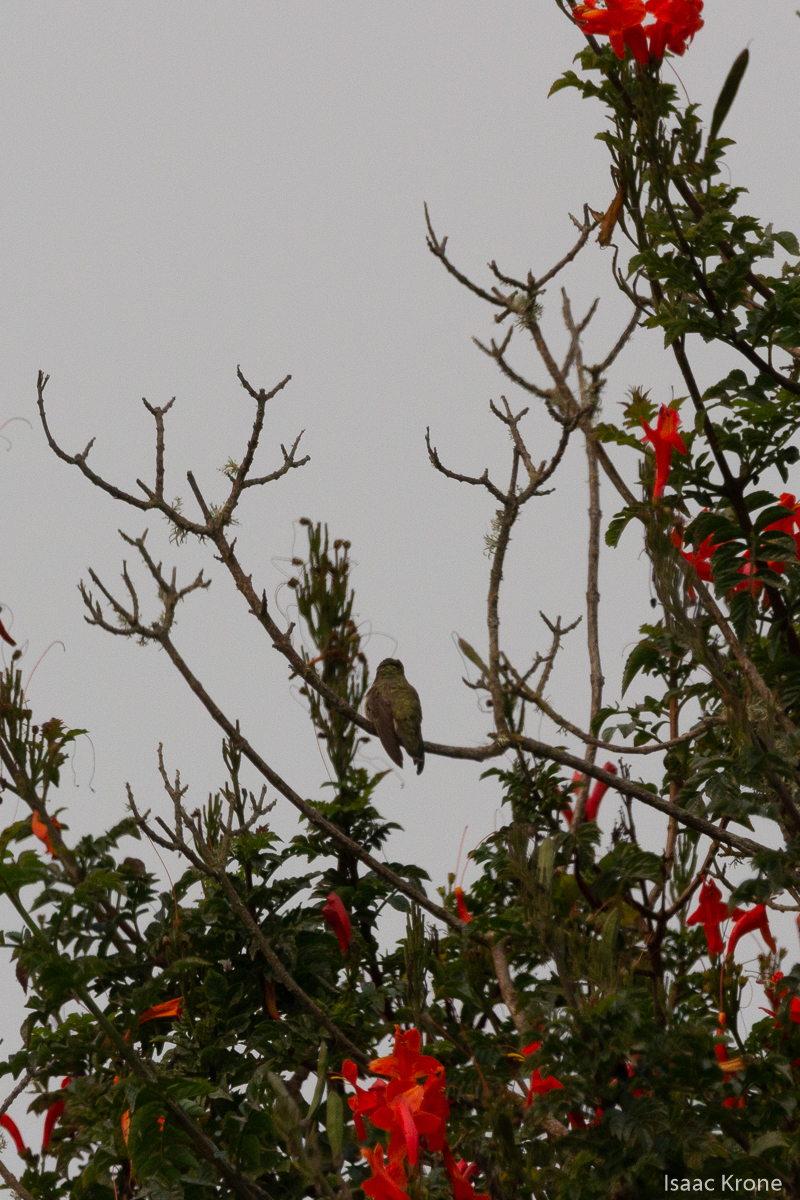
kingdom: Animalia
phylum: Chordata
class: Aves
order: Apodiformes
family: Trochilidae
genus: Calypte
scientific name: Calypte anna
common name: Anna's hummingbird
